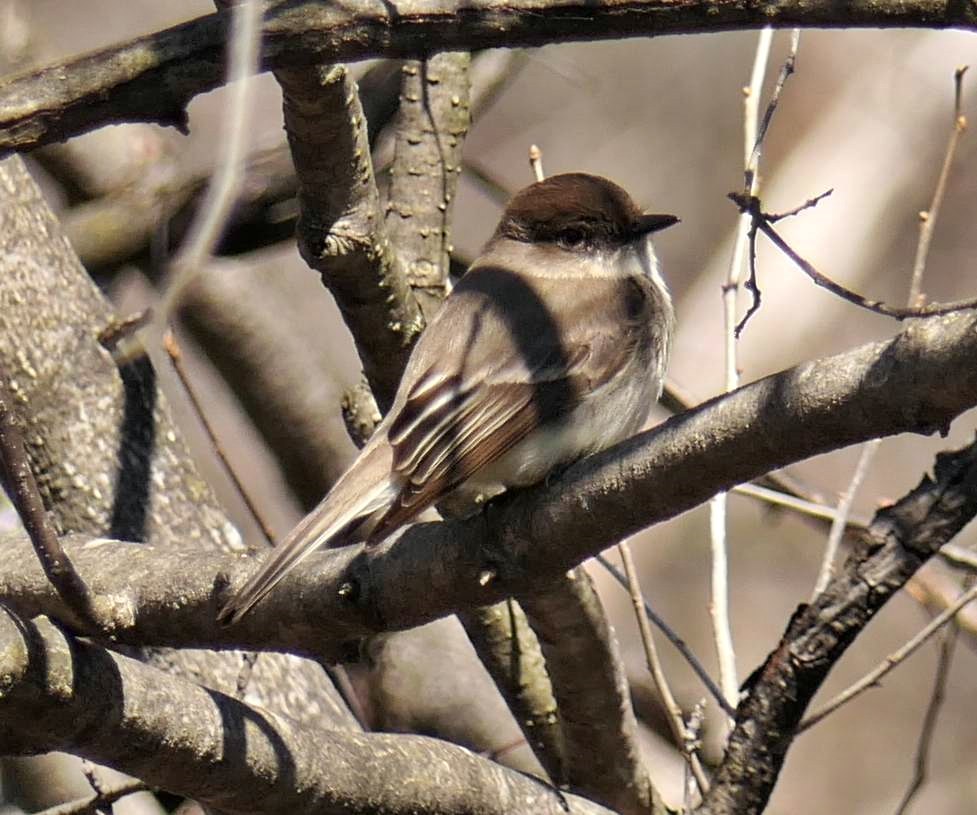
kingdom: Animalia
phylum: Chordata
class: Aves
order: Passeriformes
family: Tyrannidae
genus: Sayornis
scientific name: Sayornis phoebe
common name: Eastern phoebe
